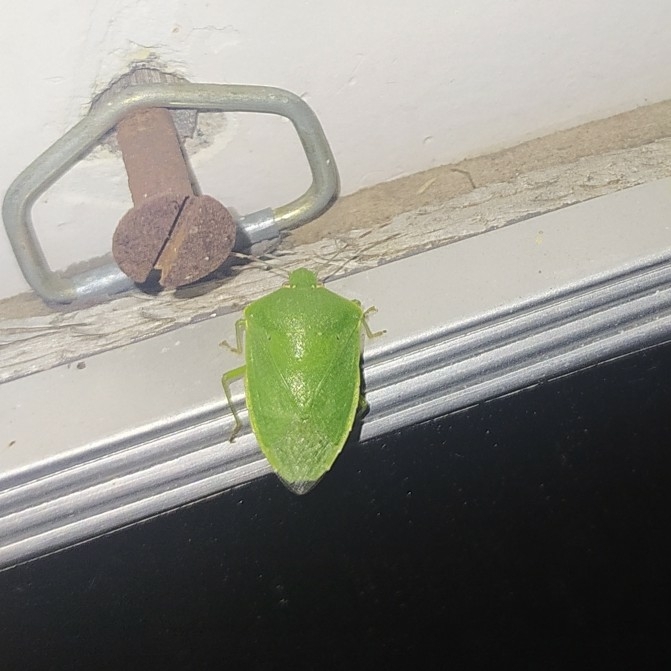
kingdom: Animalia
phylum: Arthropoda
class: Insecta
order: Hemiptera
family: Pentatomidae
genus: Nezara
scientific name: Nezara viridula
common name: Southern green stink bug
